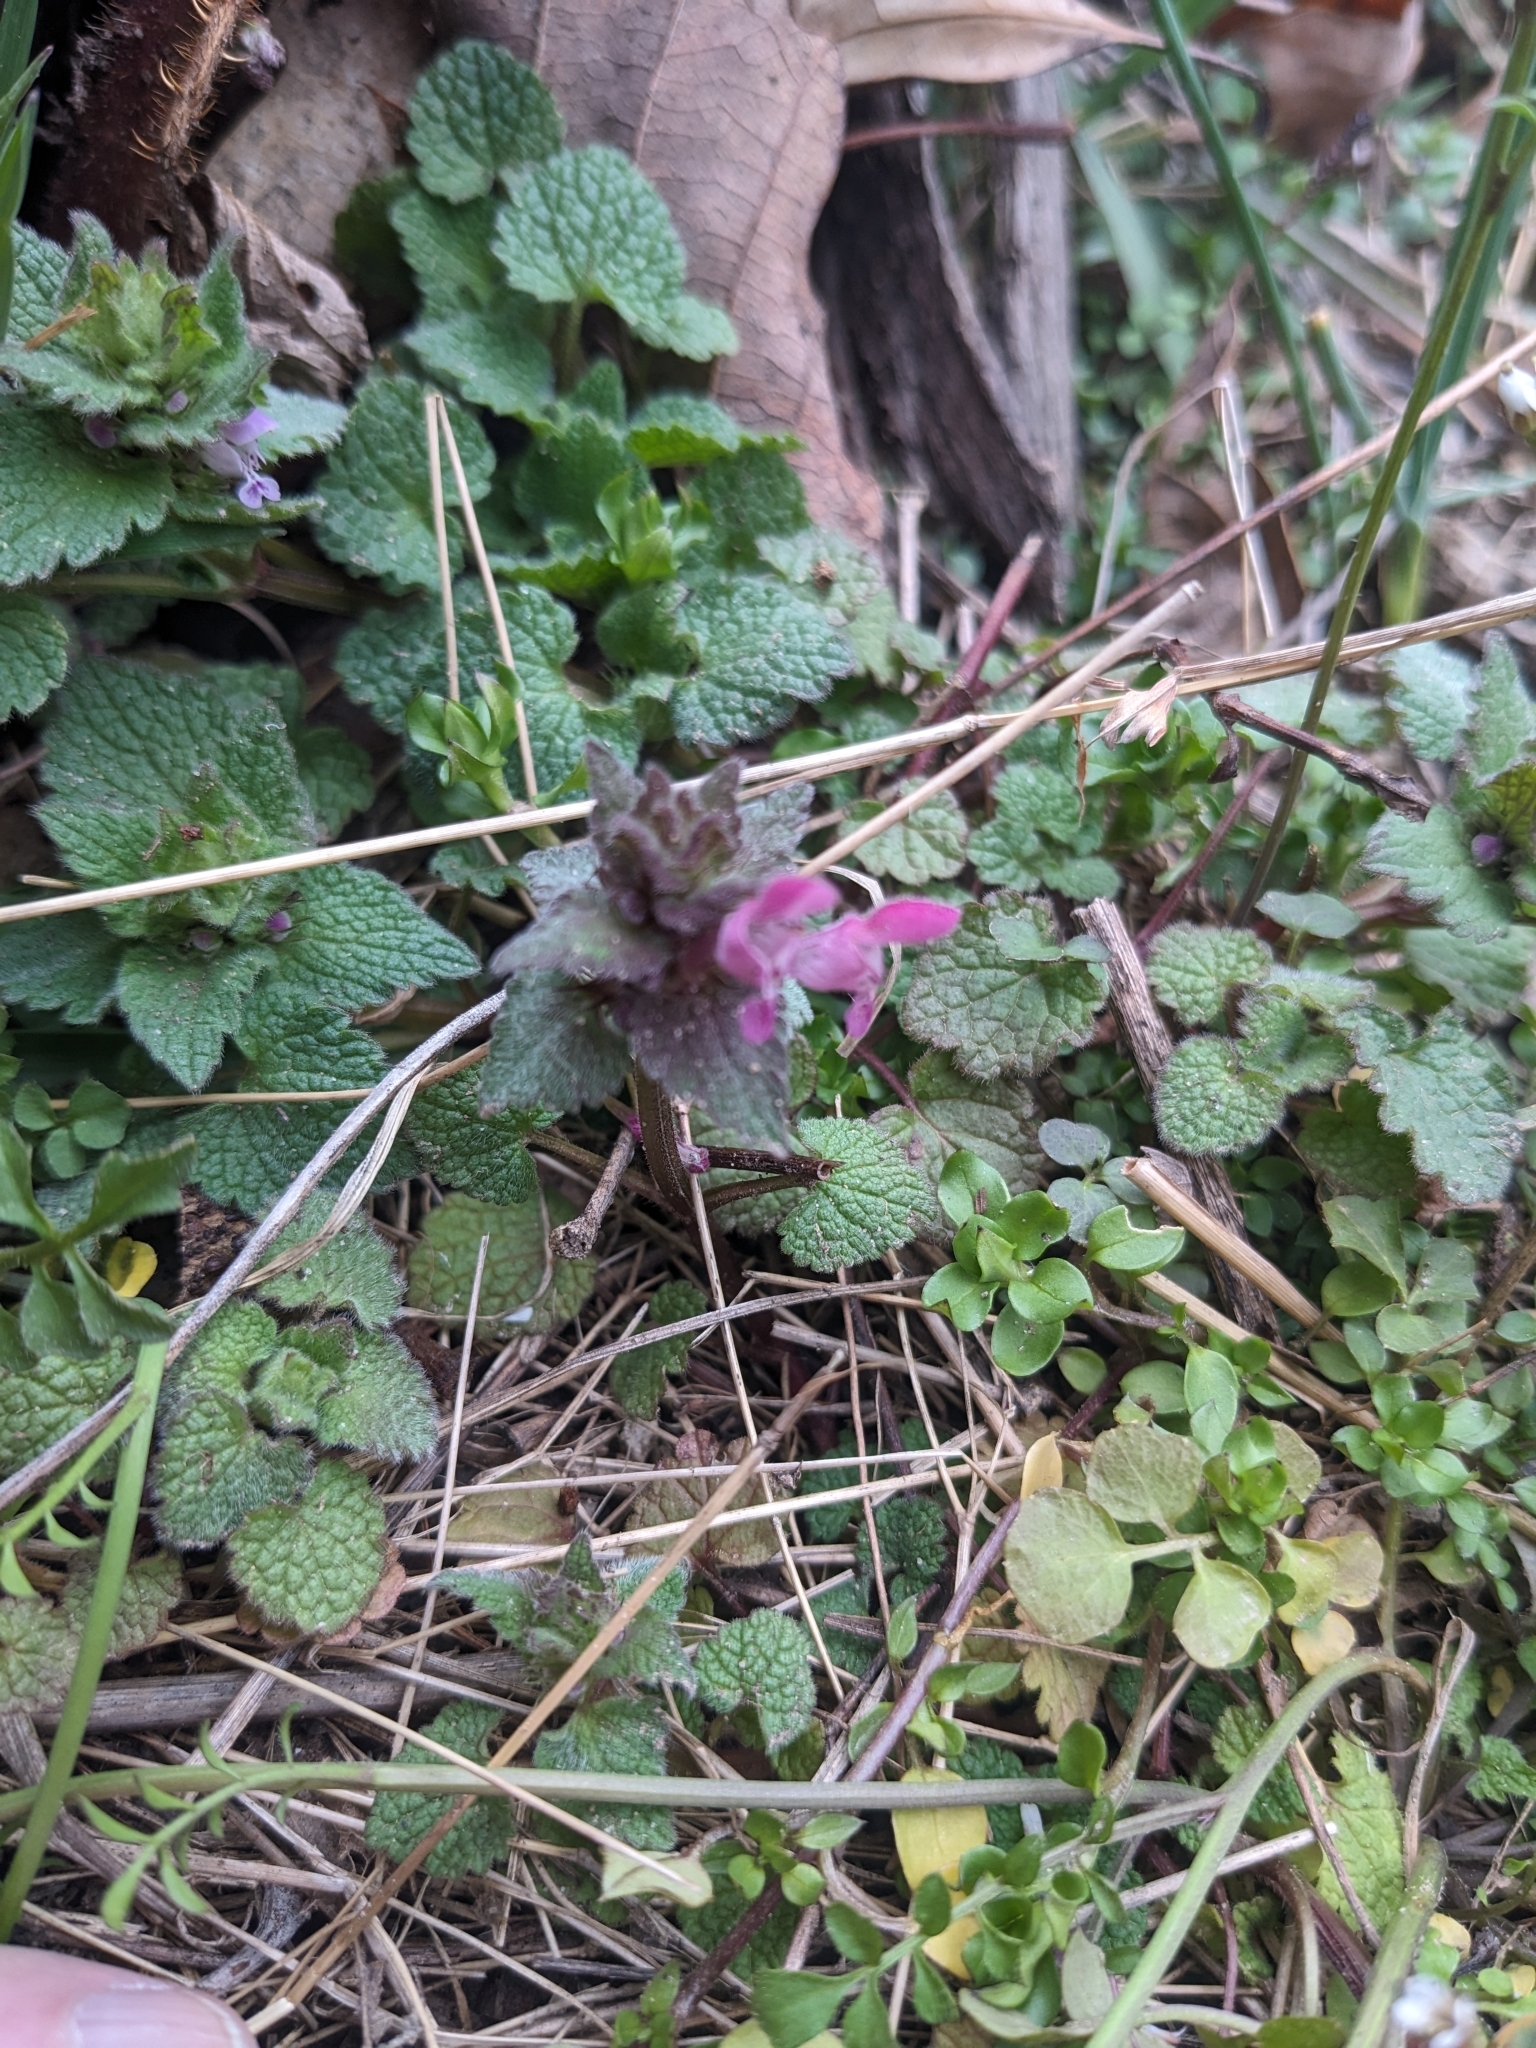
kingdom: Plantae
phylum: Tracheophyta
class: Magnoliopsida
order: Lamiales
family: Lamiaceae
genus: Lamium
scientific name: Lamium purpureum
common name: Red dead-nettle
